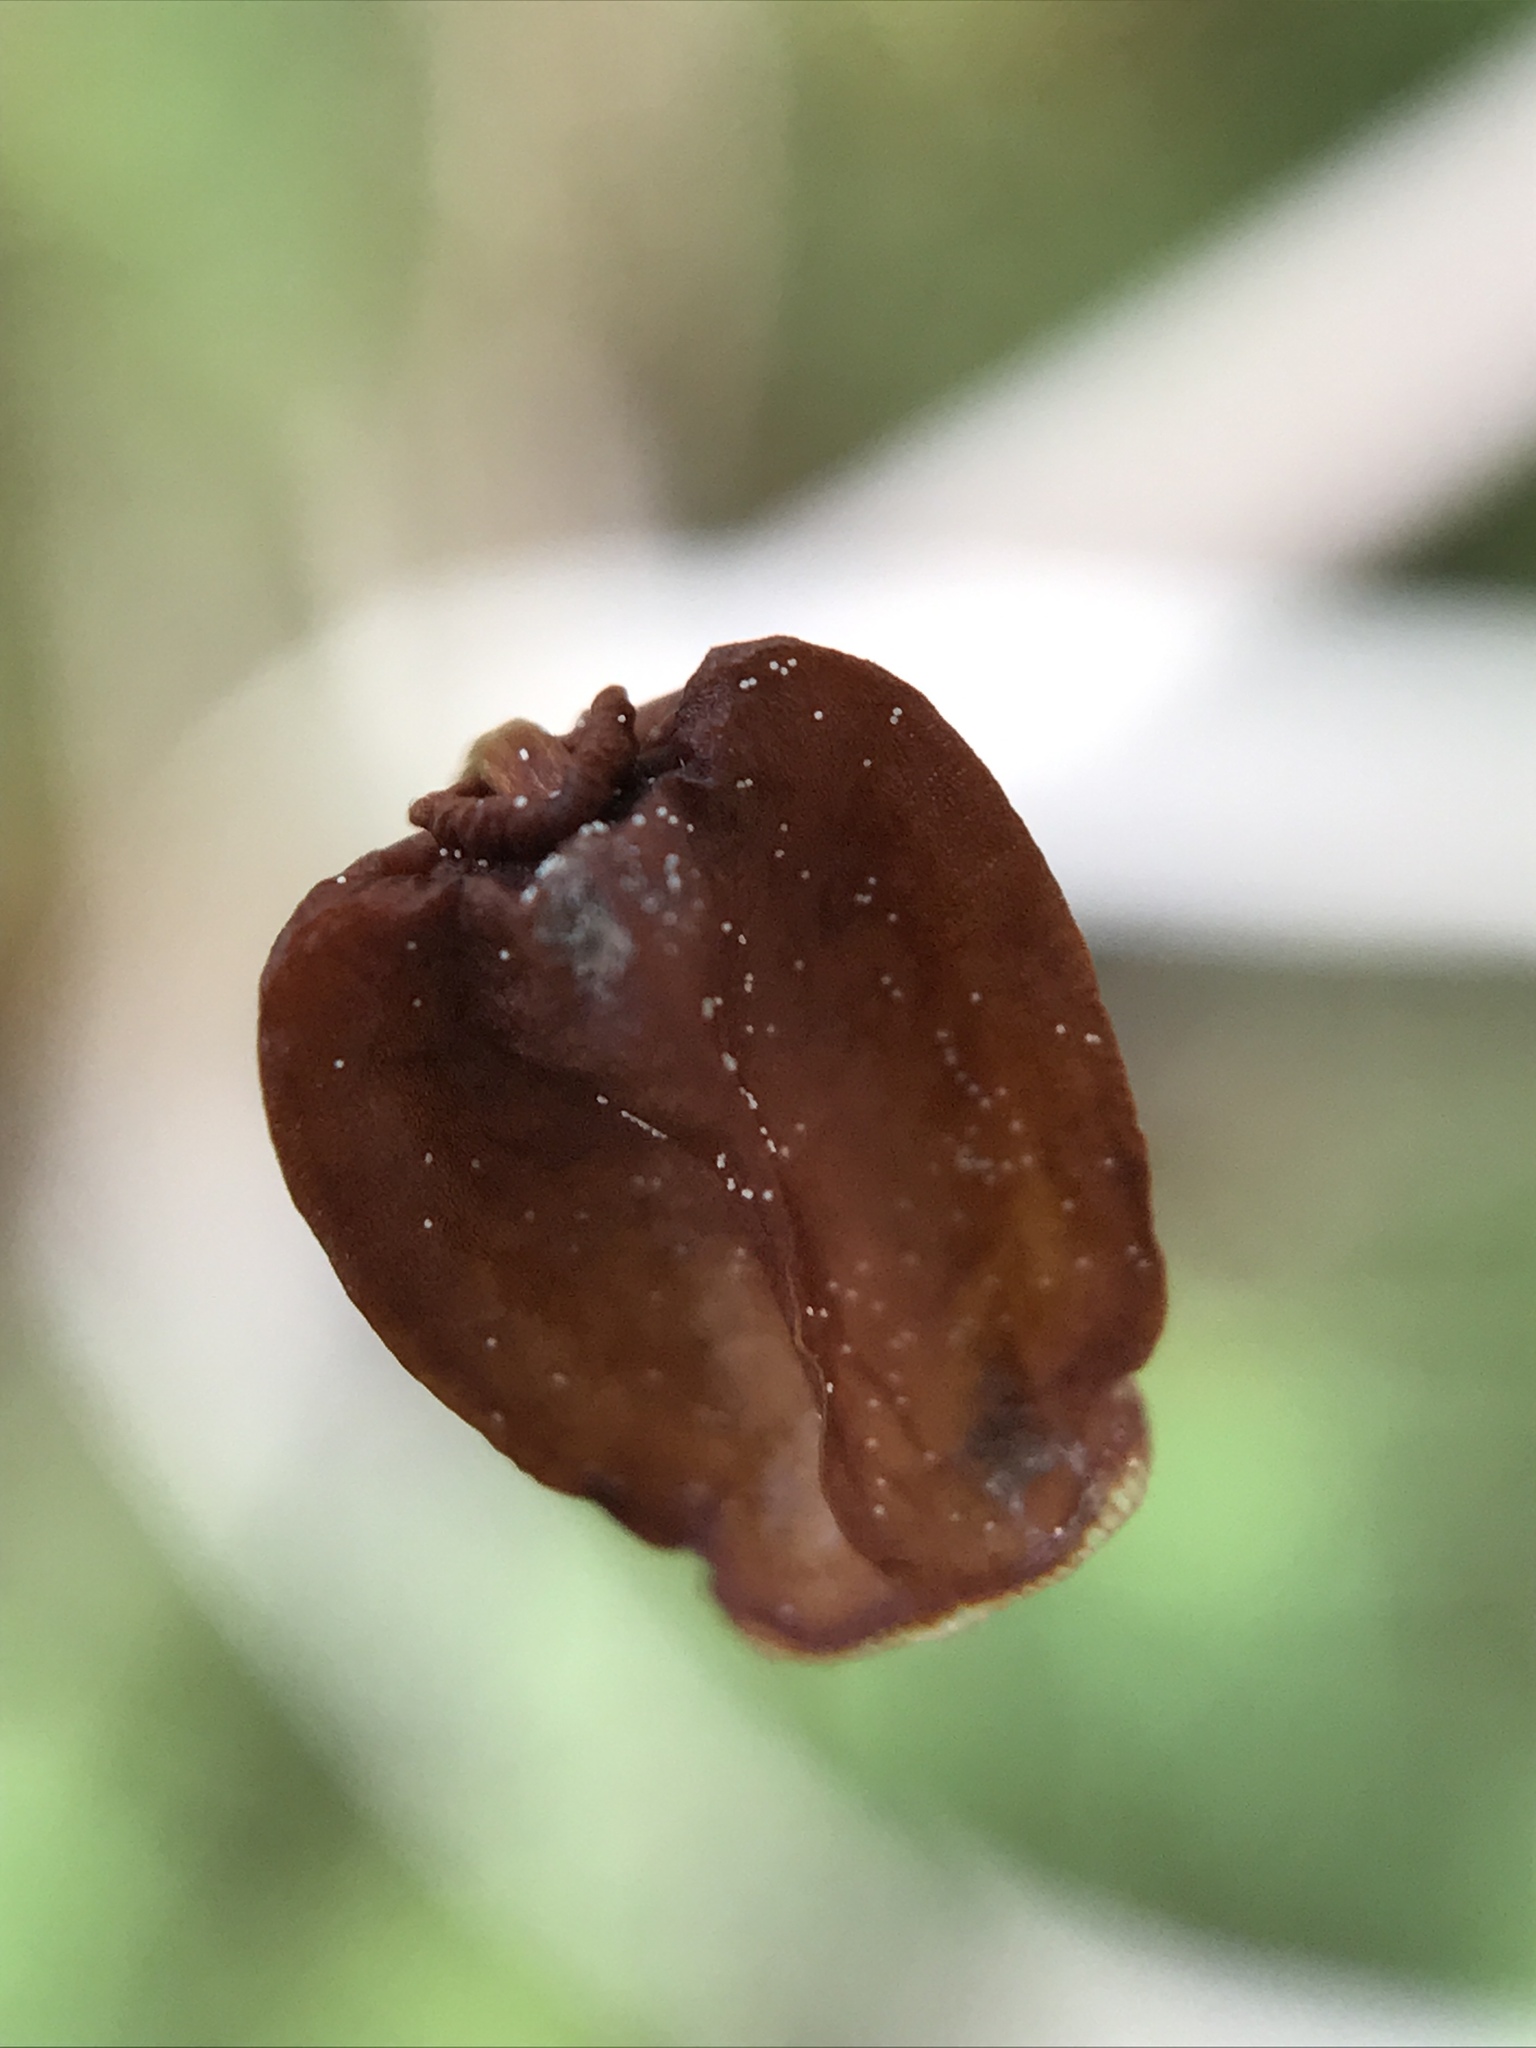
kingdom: Plantae
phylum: Bryophyta
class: Polytrichopsida
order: Polytrichales
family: Polytrichaceae
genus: Polytrichum
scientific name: Polytrichum commune
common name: Common haircap
